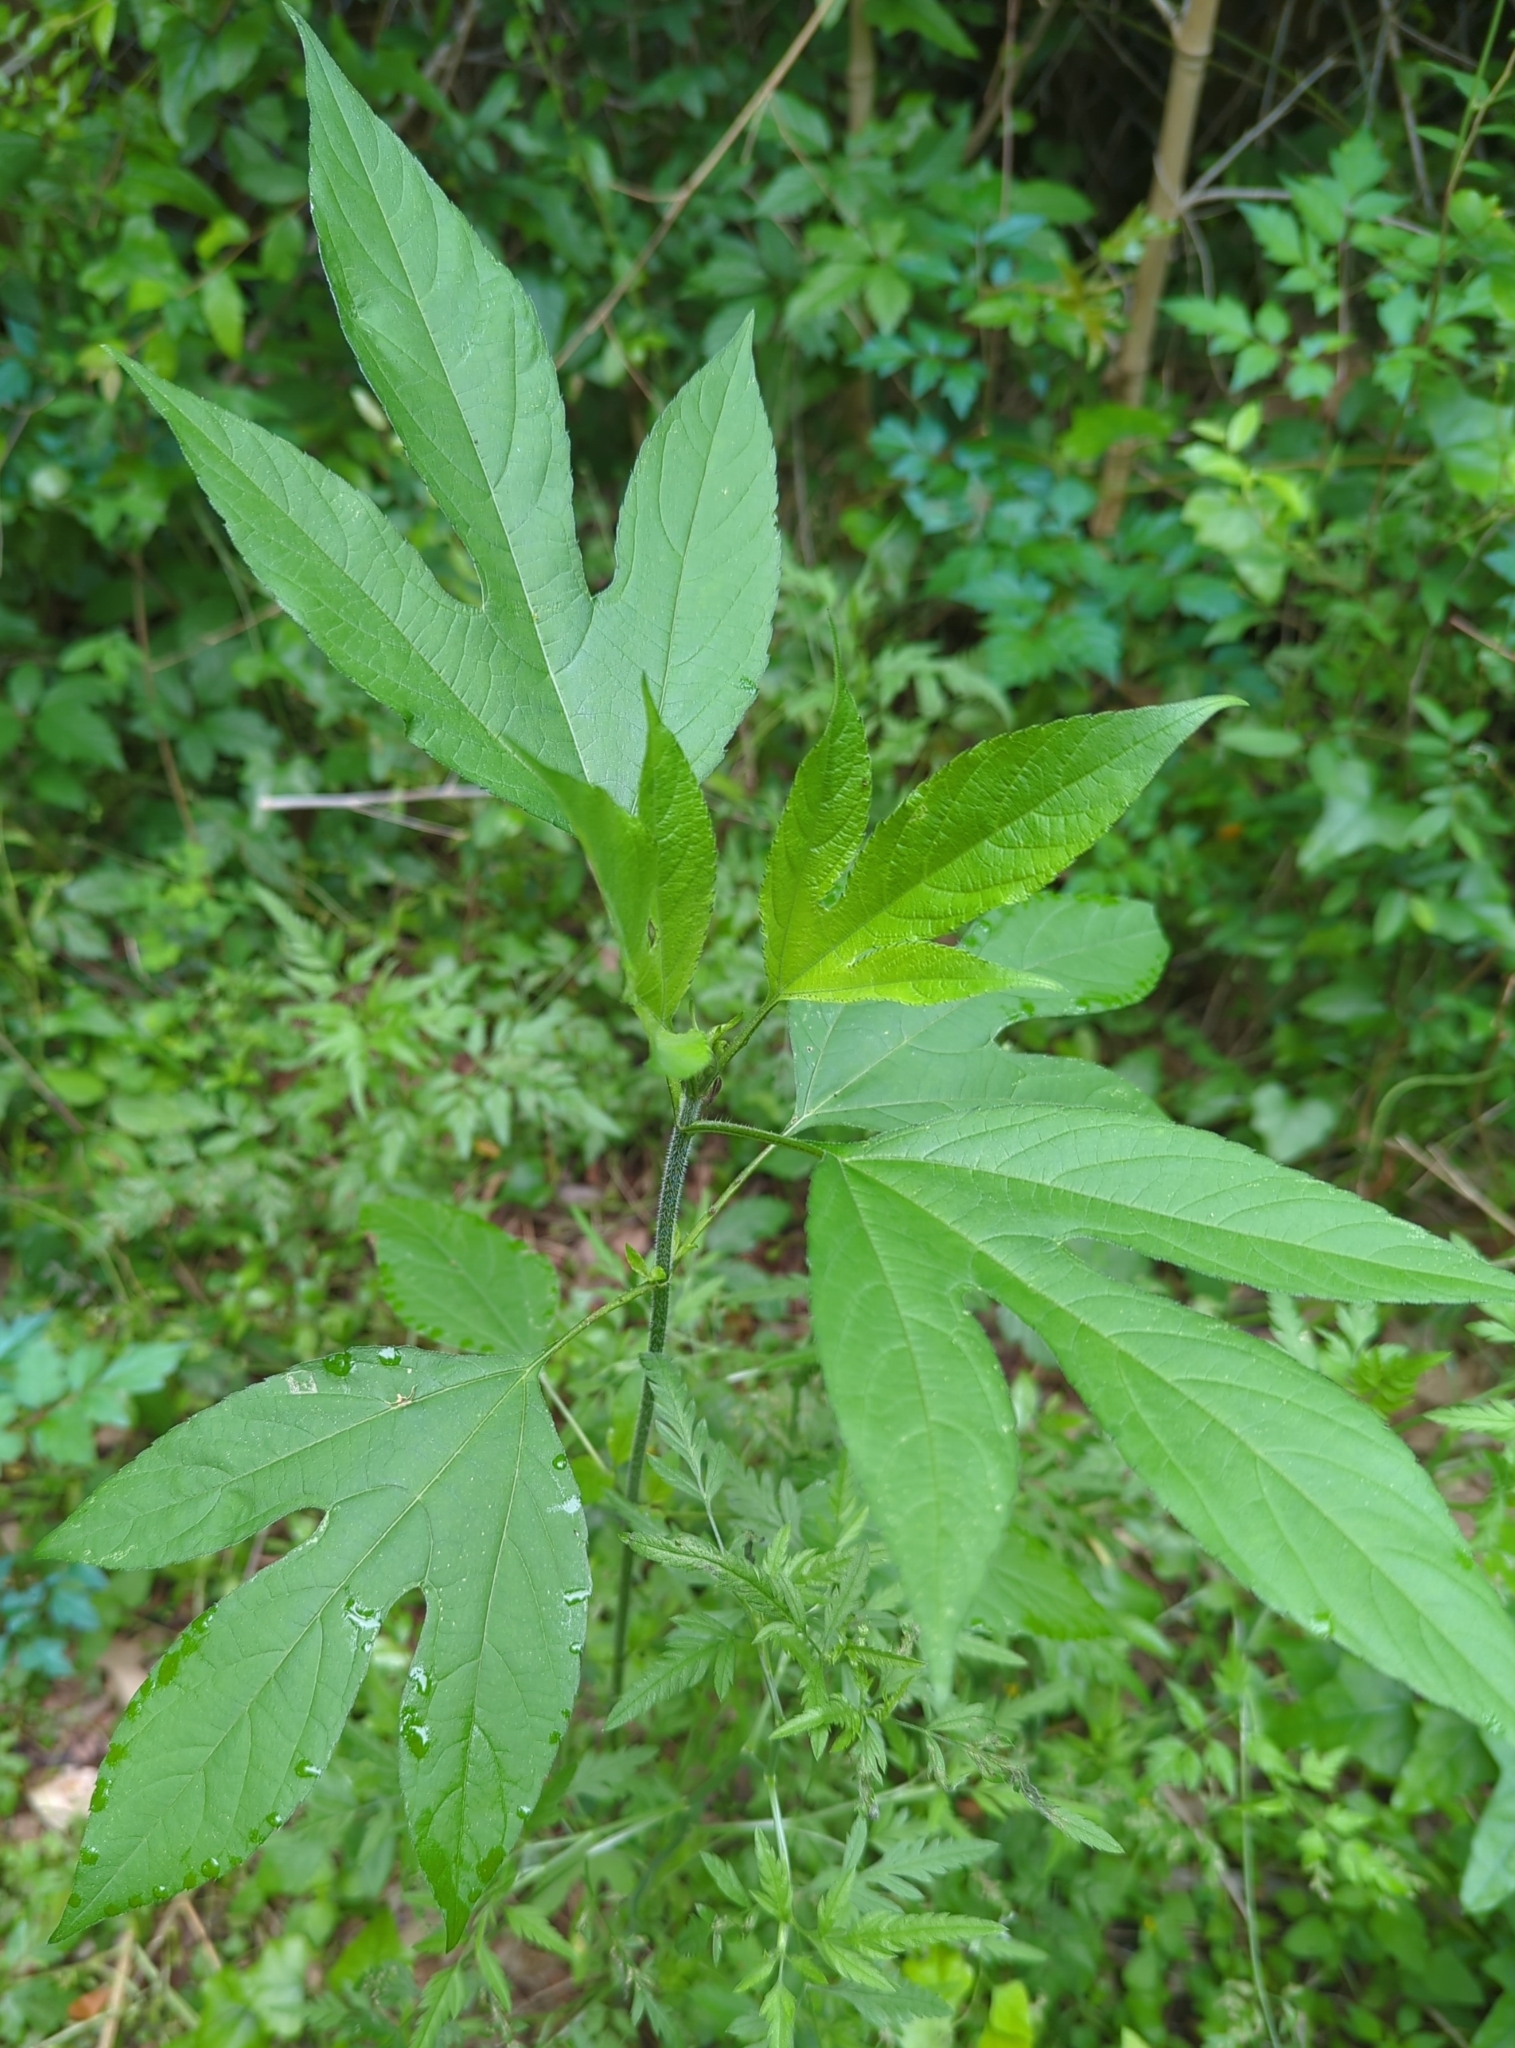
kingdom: Plantae
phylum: Tracheophyta
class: Magnoliopsida
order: Asterales
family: Asteraceae
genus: Ambrosia
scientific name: Ambrosia trifida
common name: Giant ragweed
